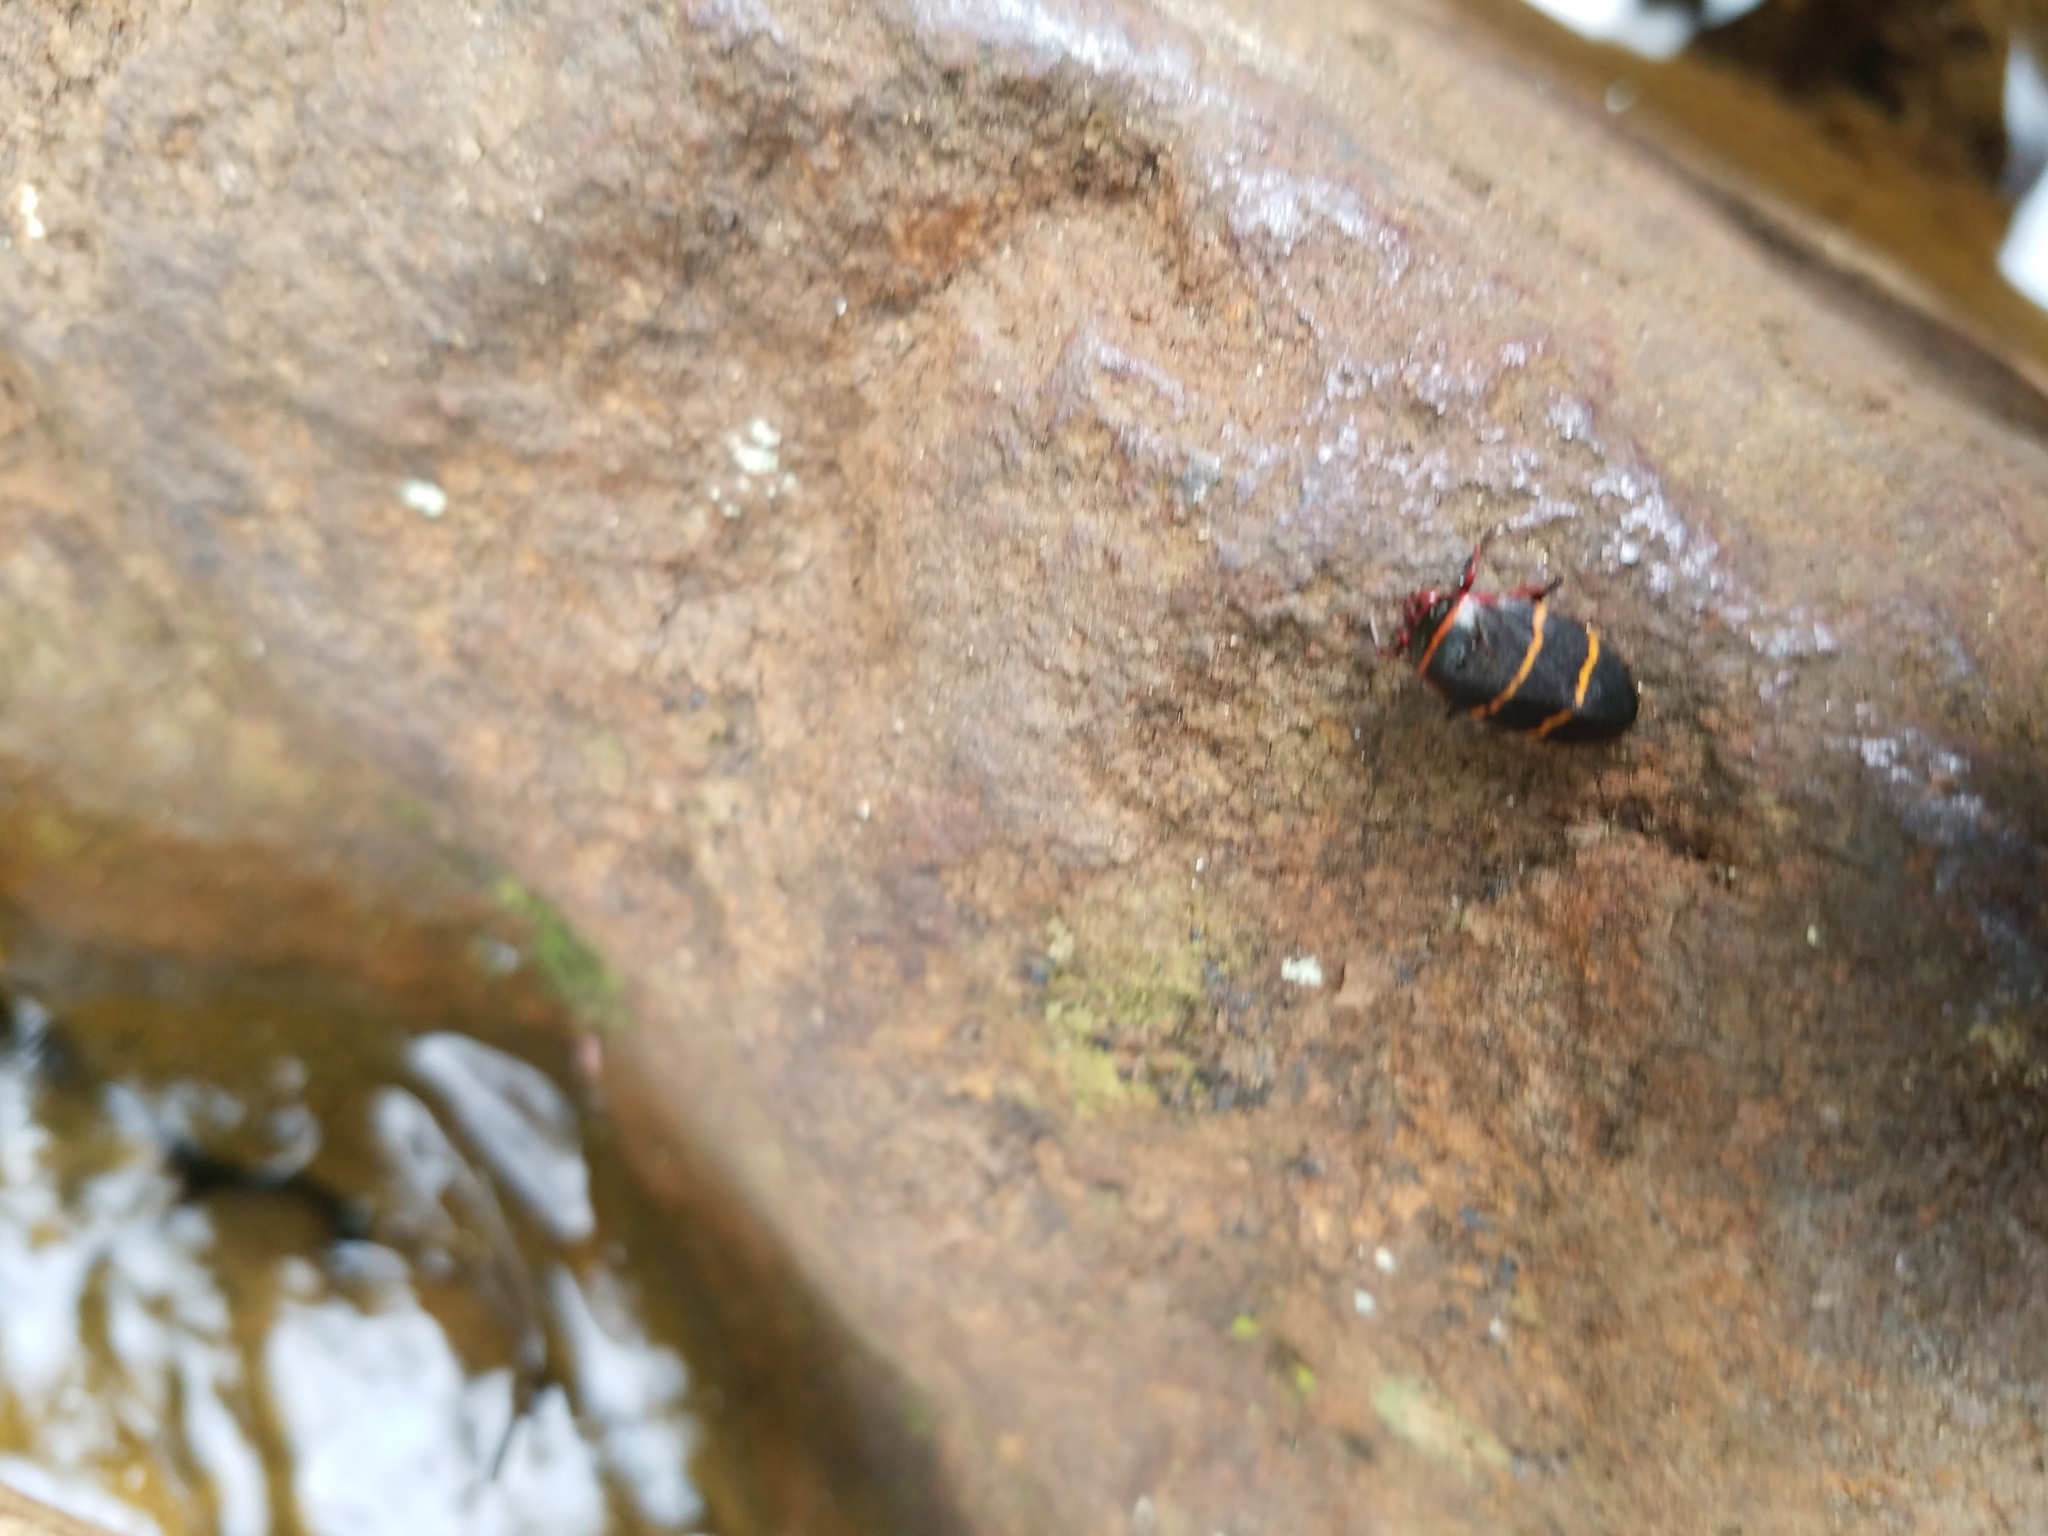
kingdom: Animalia
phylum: Arthropoda
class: Insecta
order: Hemiptera
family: Cercopidae
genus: Prosapia
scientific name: Prosapia bicincta
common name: Twolined spittlebug
